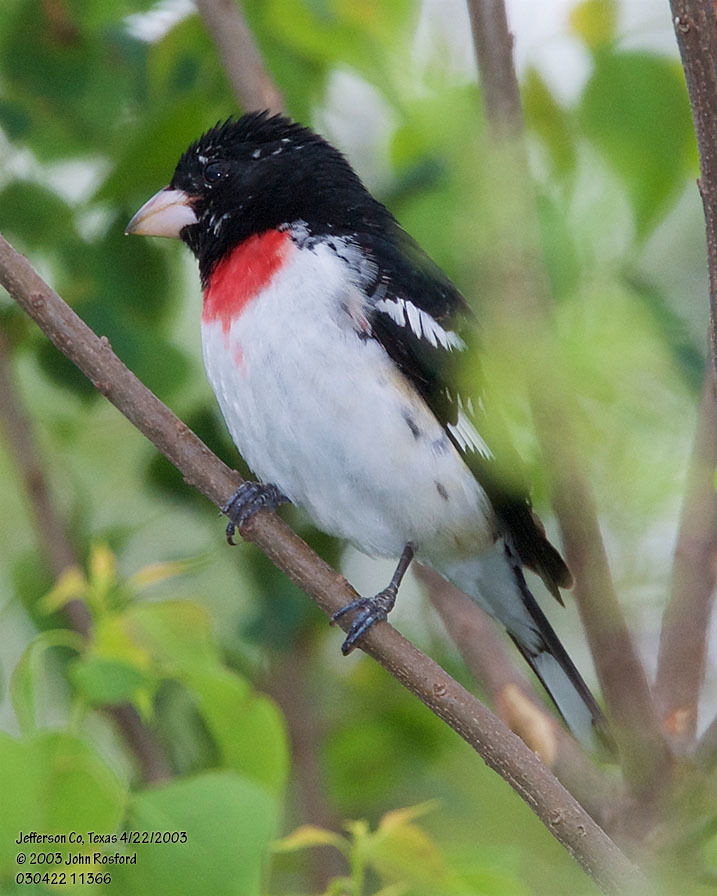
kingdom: Animalia
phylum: Chordata
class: Aves
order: Passeriformes
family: Cardinalidae
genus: Pheucticus
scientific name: Pheucticus ludovicianus
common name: Rose-breasted grosbeak
